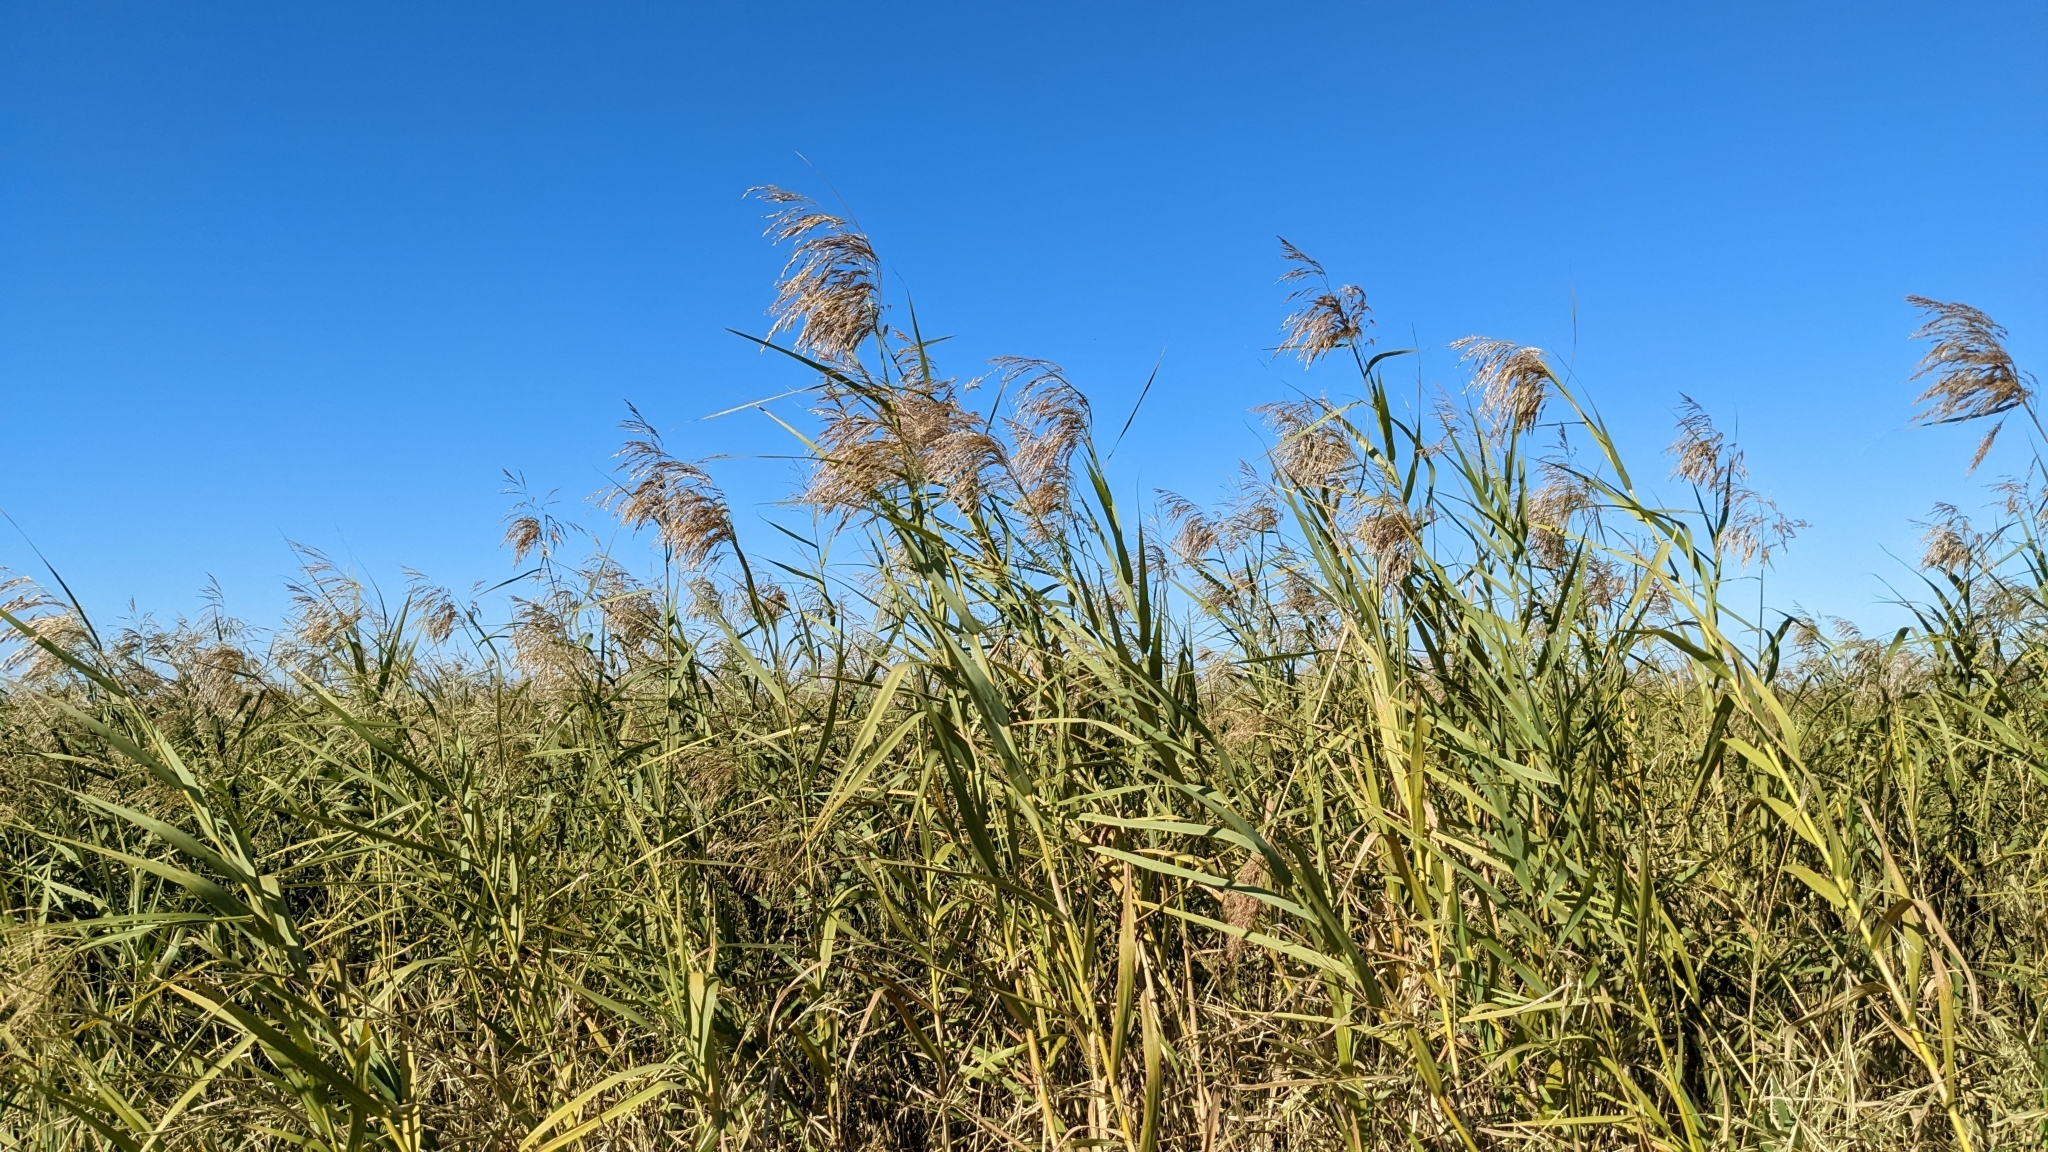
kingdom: Plantae
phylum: Tracheophyta
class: Liliopsida
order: Poales
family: Poaceae
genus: Phragmites
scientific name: Phragmites australis
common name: Common reed
